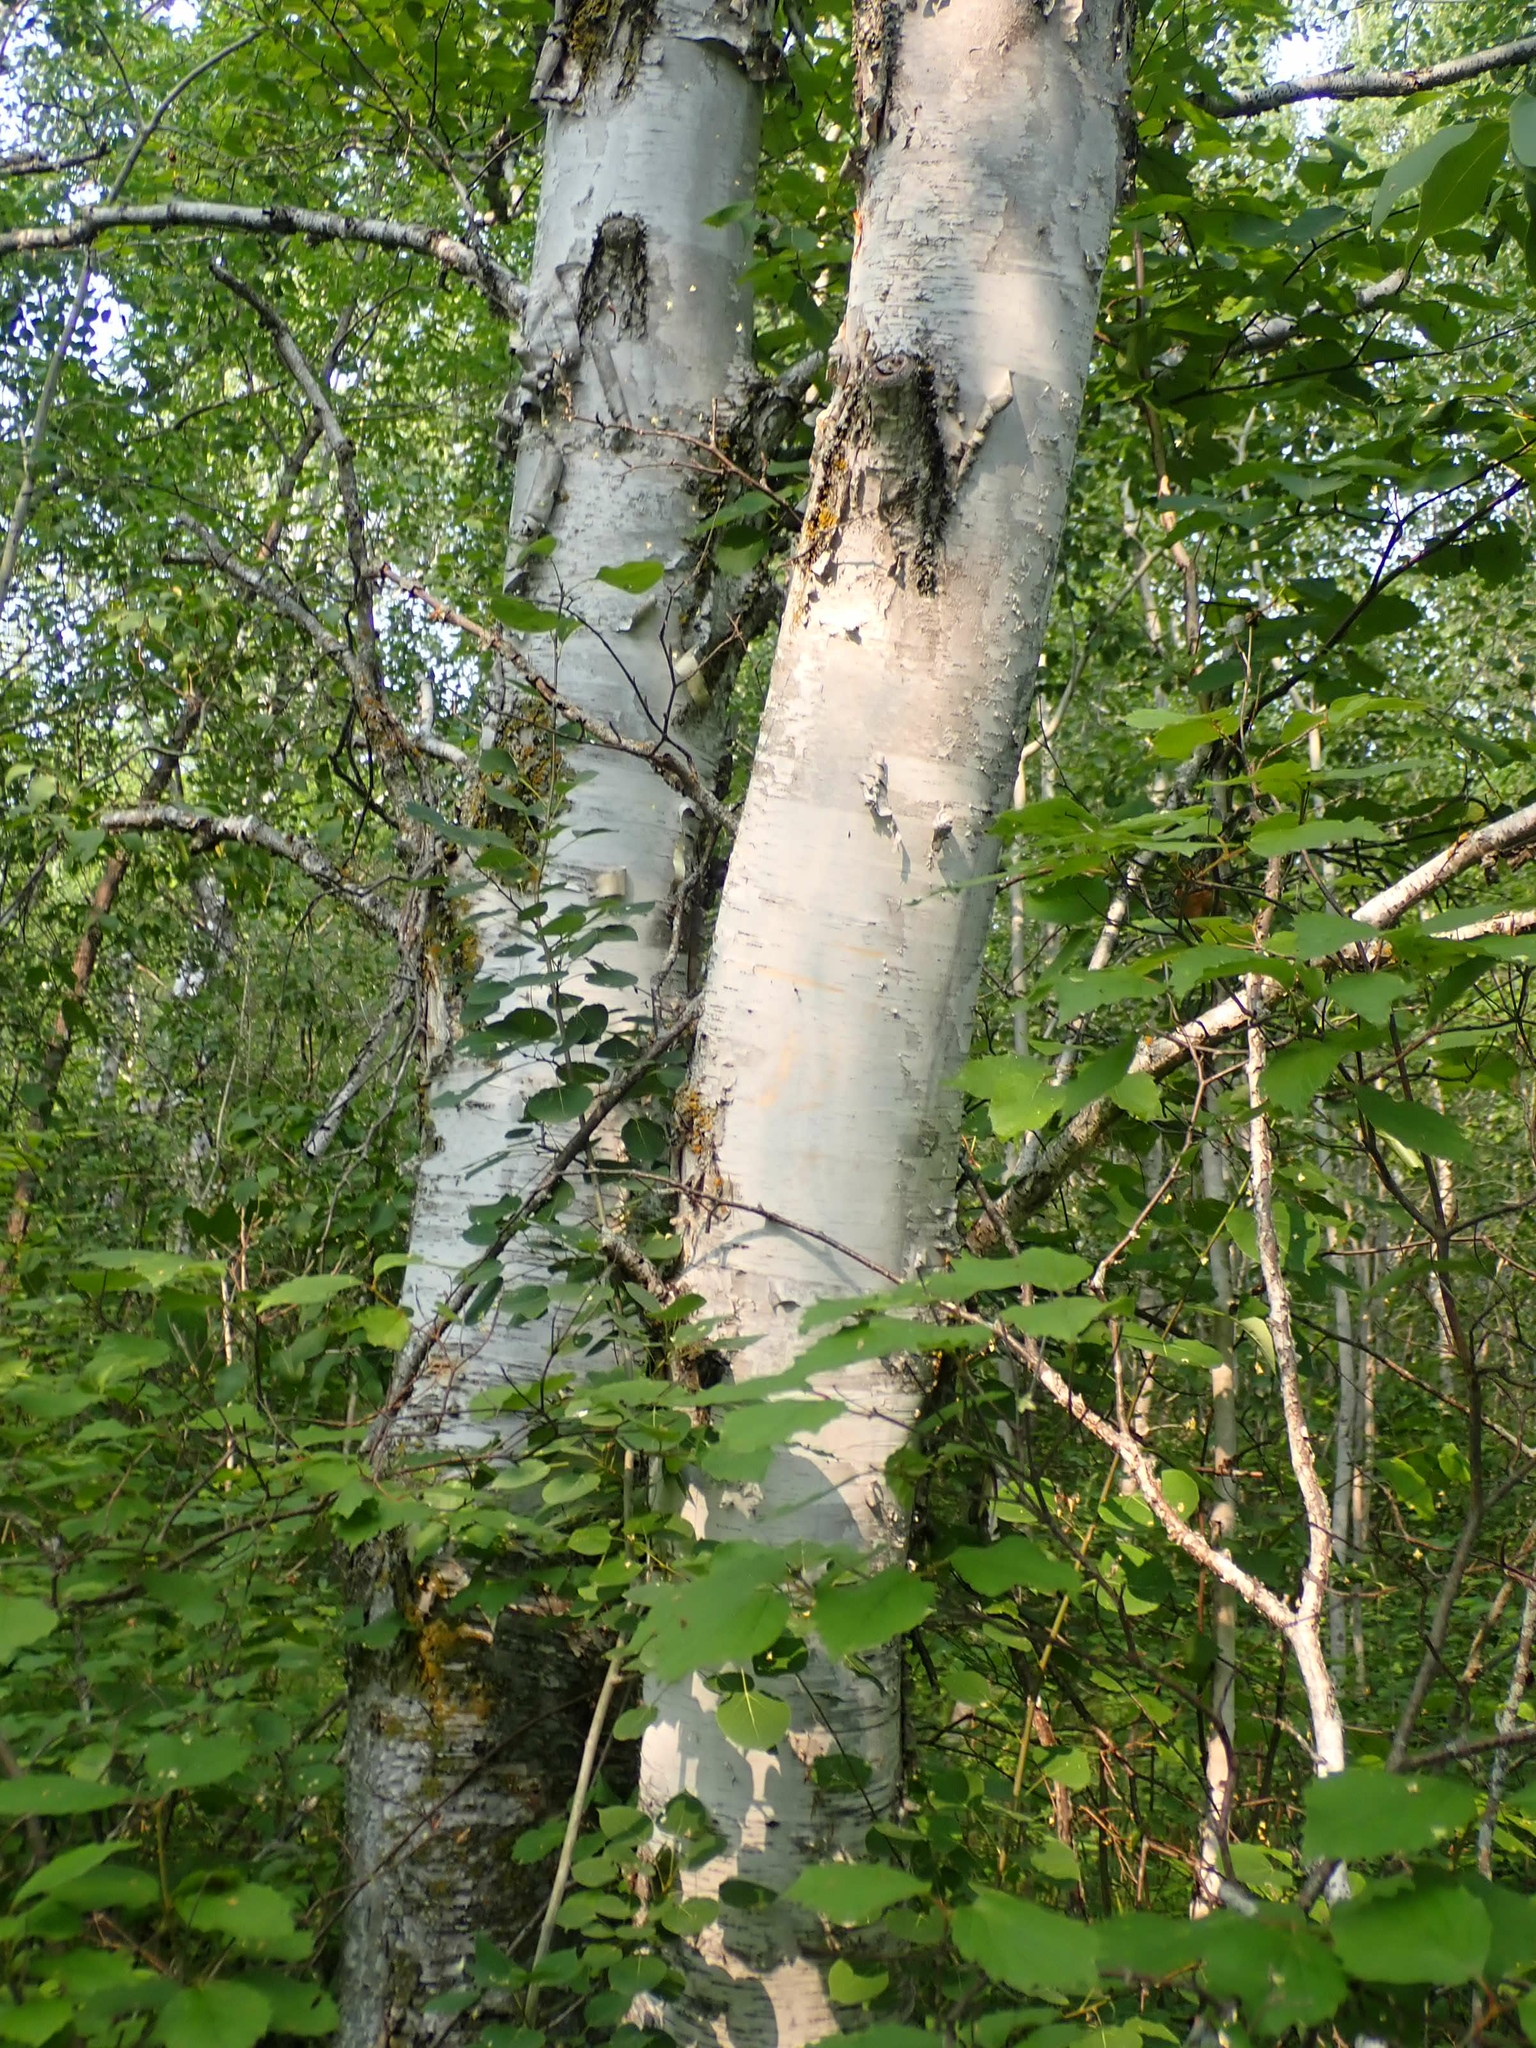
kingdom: Plantae
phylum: Tracheophyta
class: Magnoliopsida
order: Fagales
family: Betulaceae
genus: Betula
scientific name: Betula papyrifera
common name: Paper birch
